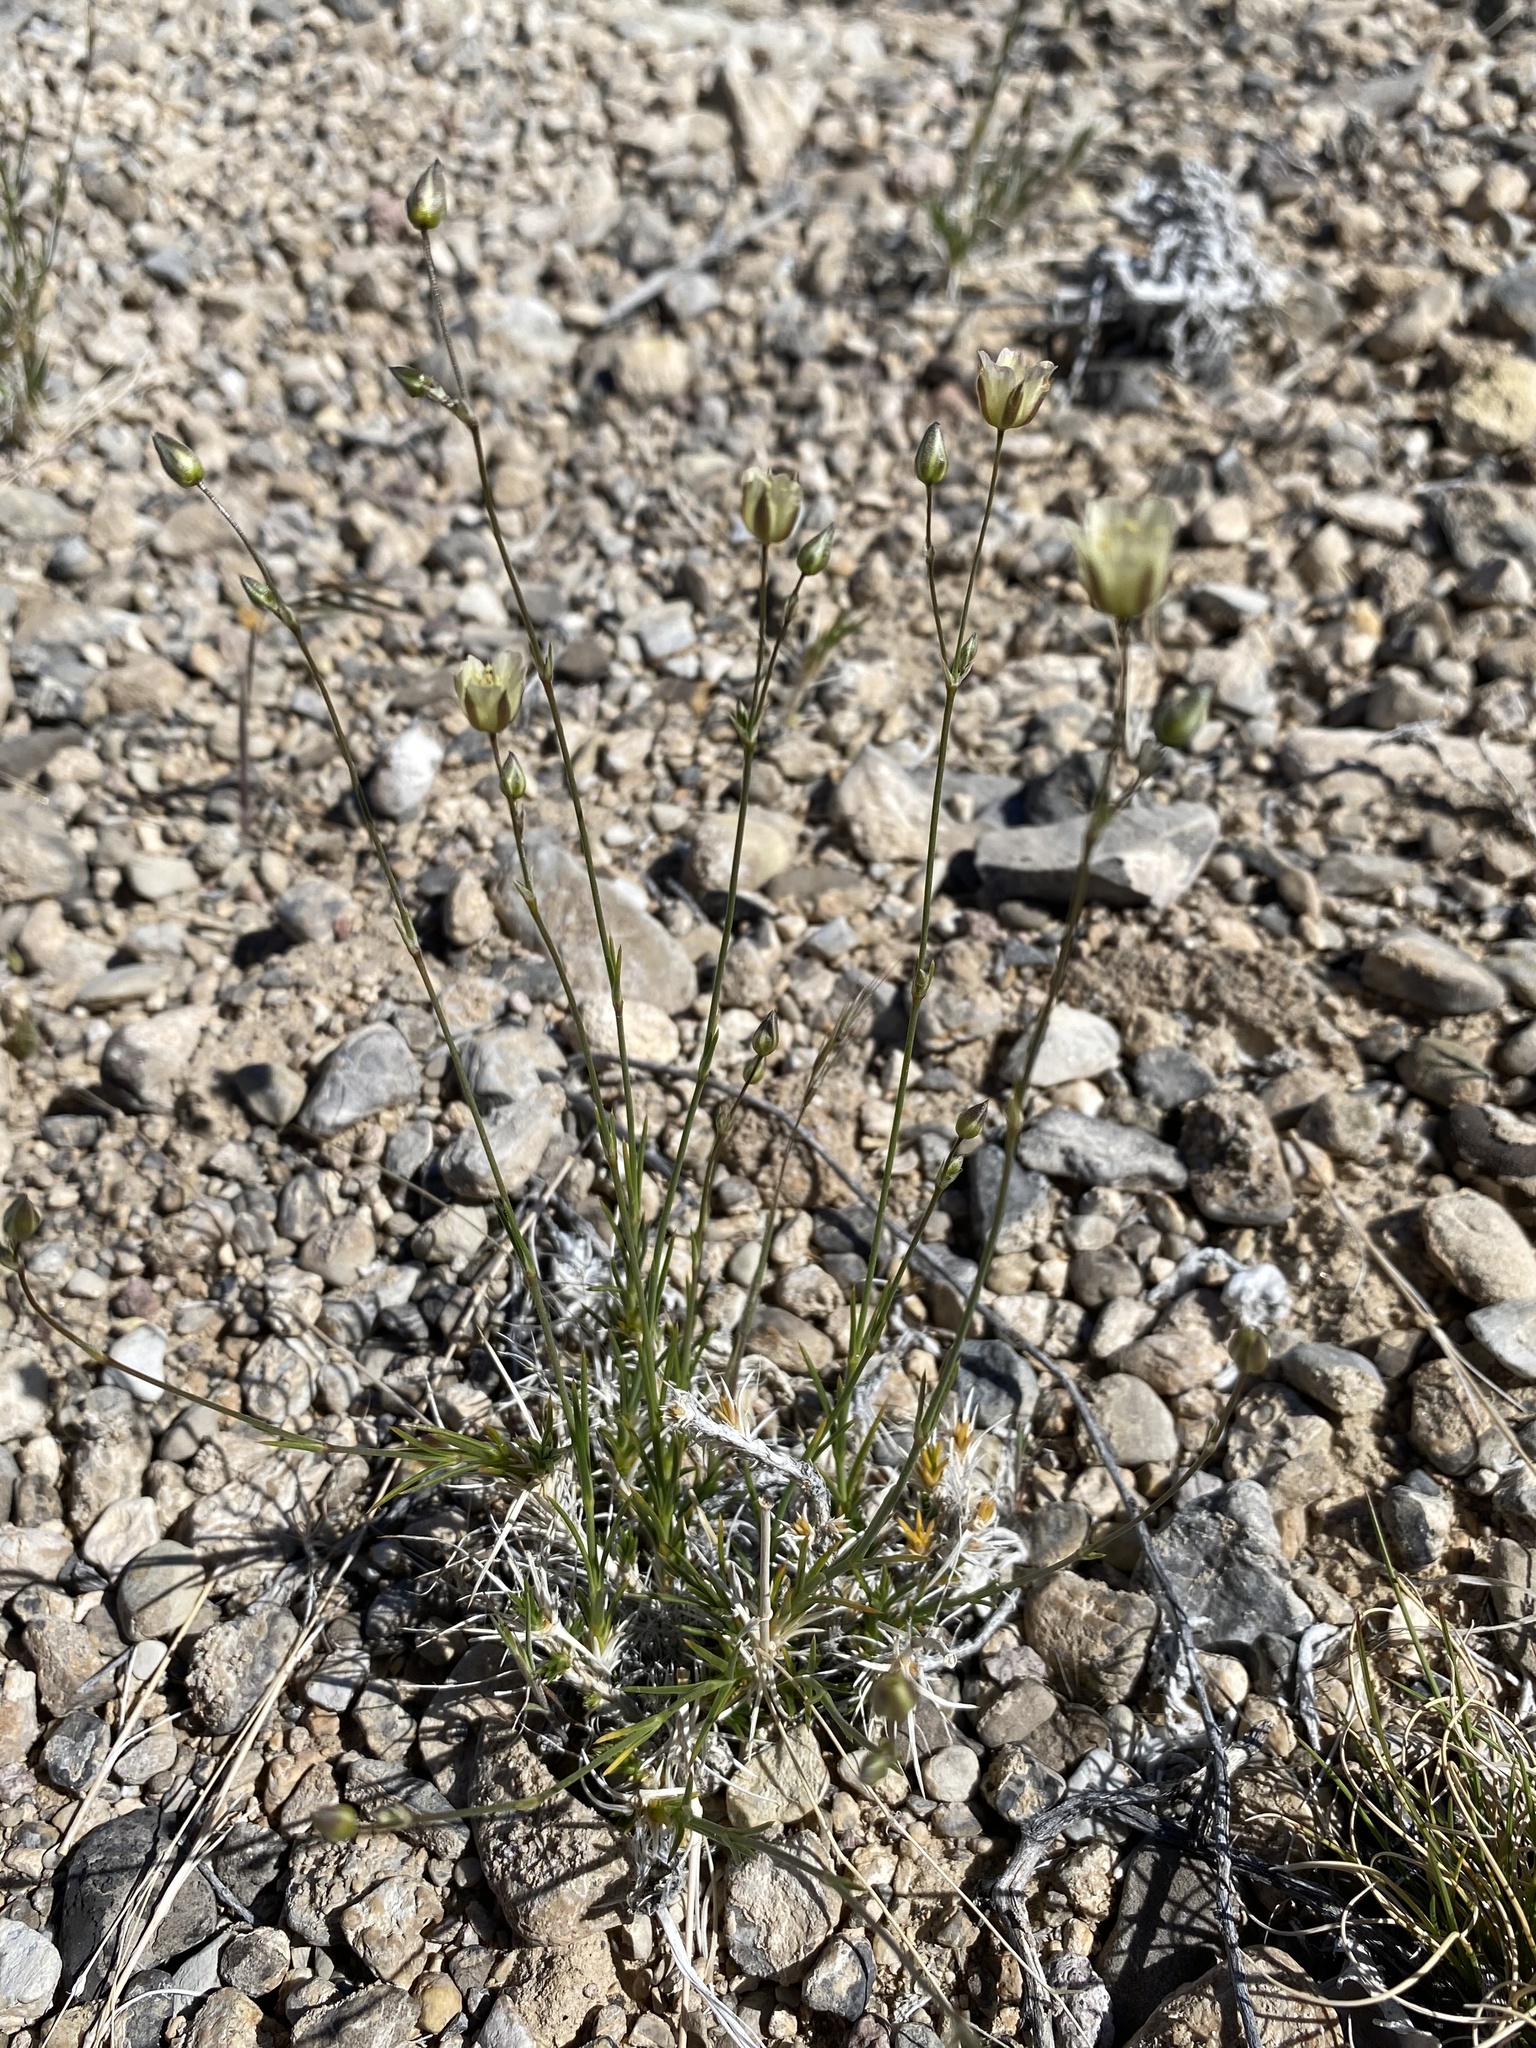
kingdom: Plantae
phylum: Tracheophyta
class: Magnoliopsida
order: Caryophyllales
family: Caryophyllaceae
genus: Eremogone
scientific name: Eremogone macradenia
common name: Mohave sandwort
